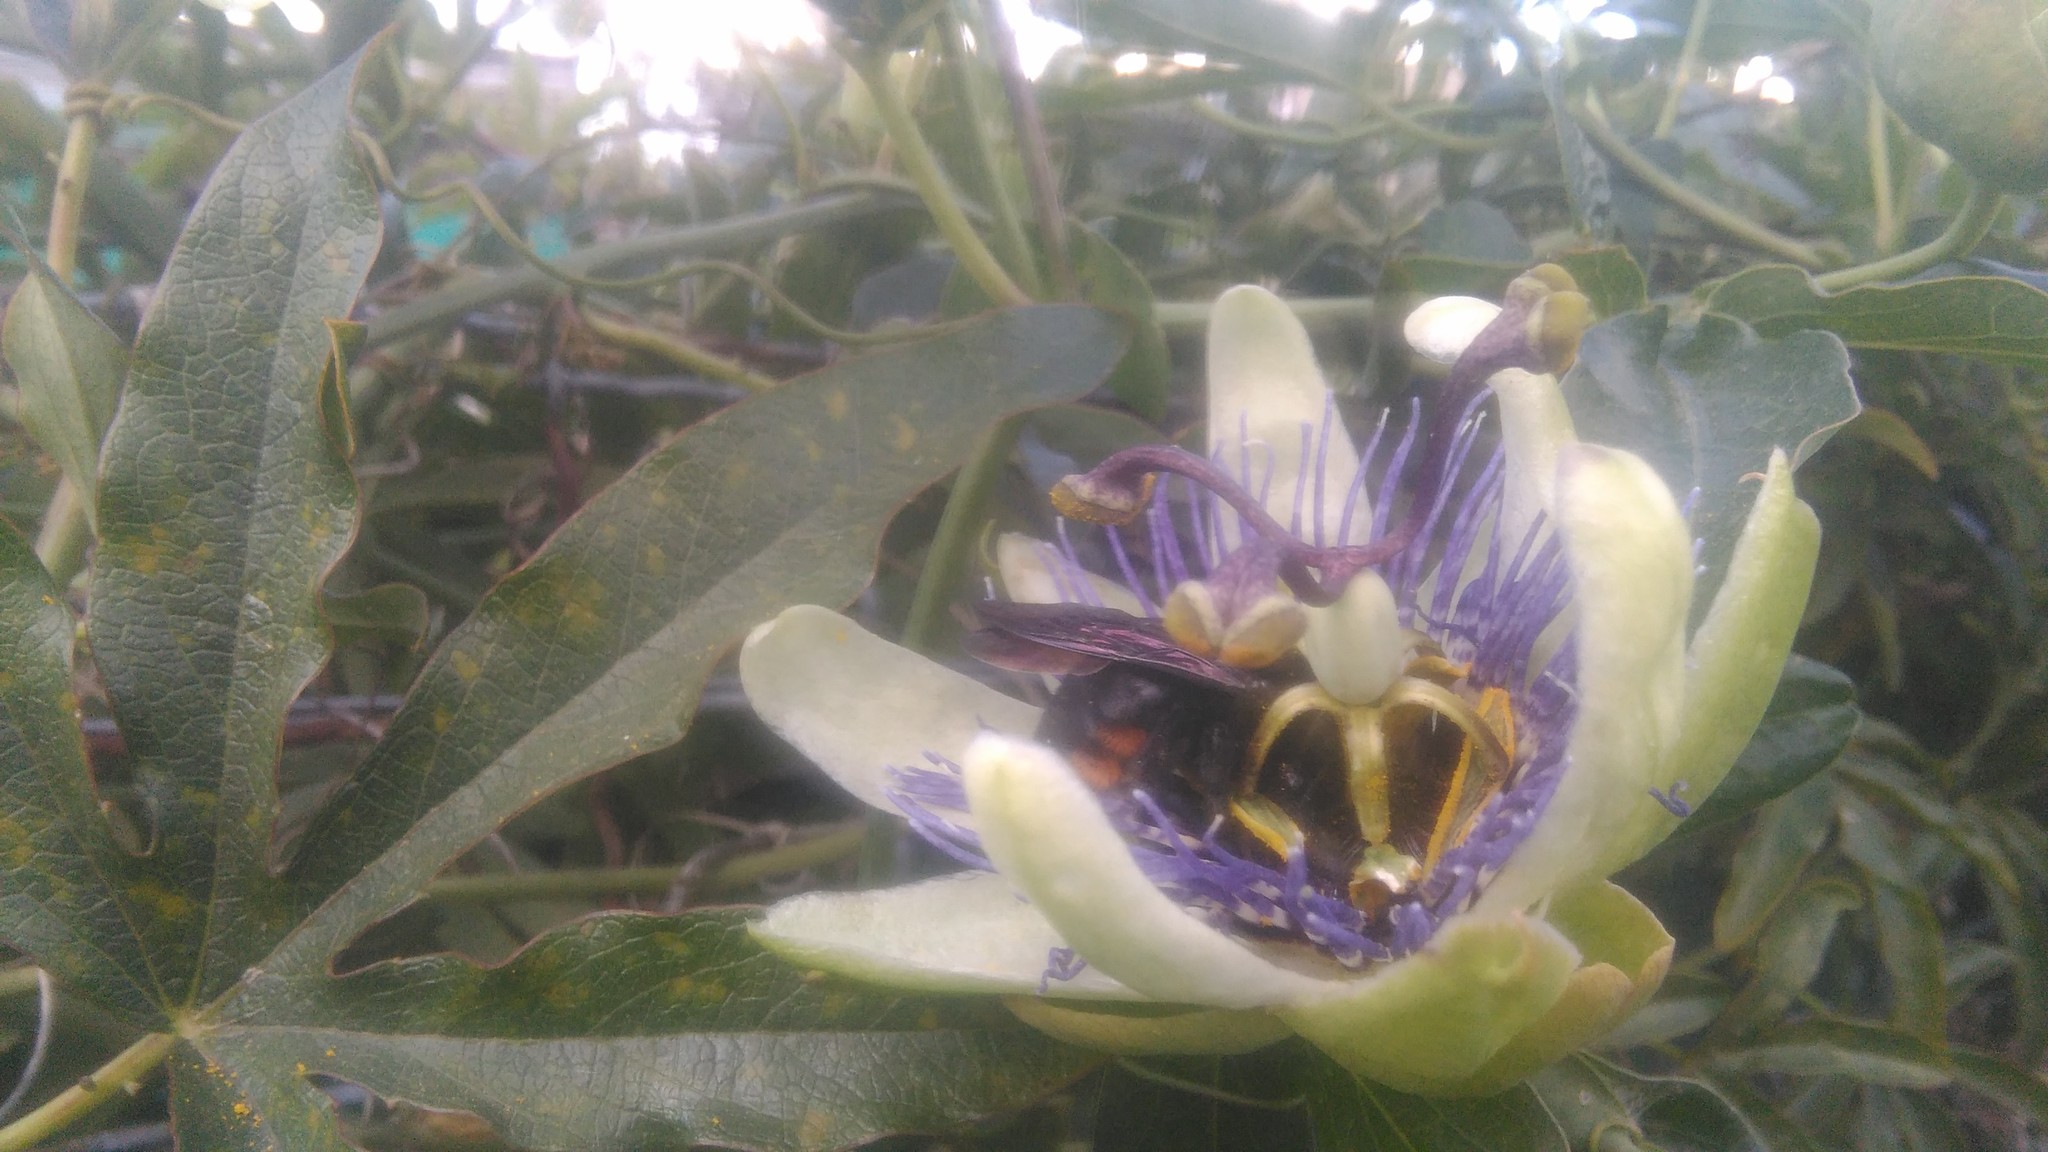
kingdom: Animalia
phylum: Arthropoda
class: Insecta
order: Hymenoptera
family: Apidae
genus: Xylocopa
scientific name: Xylocopa augusti
